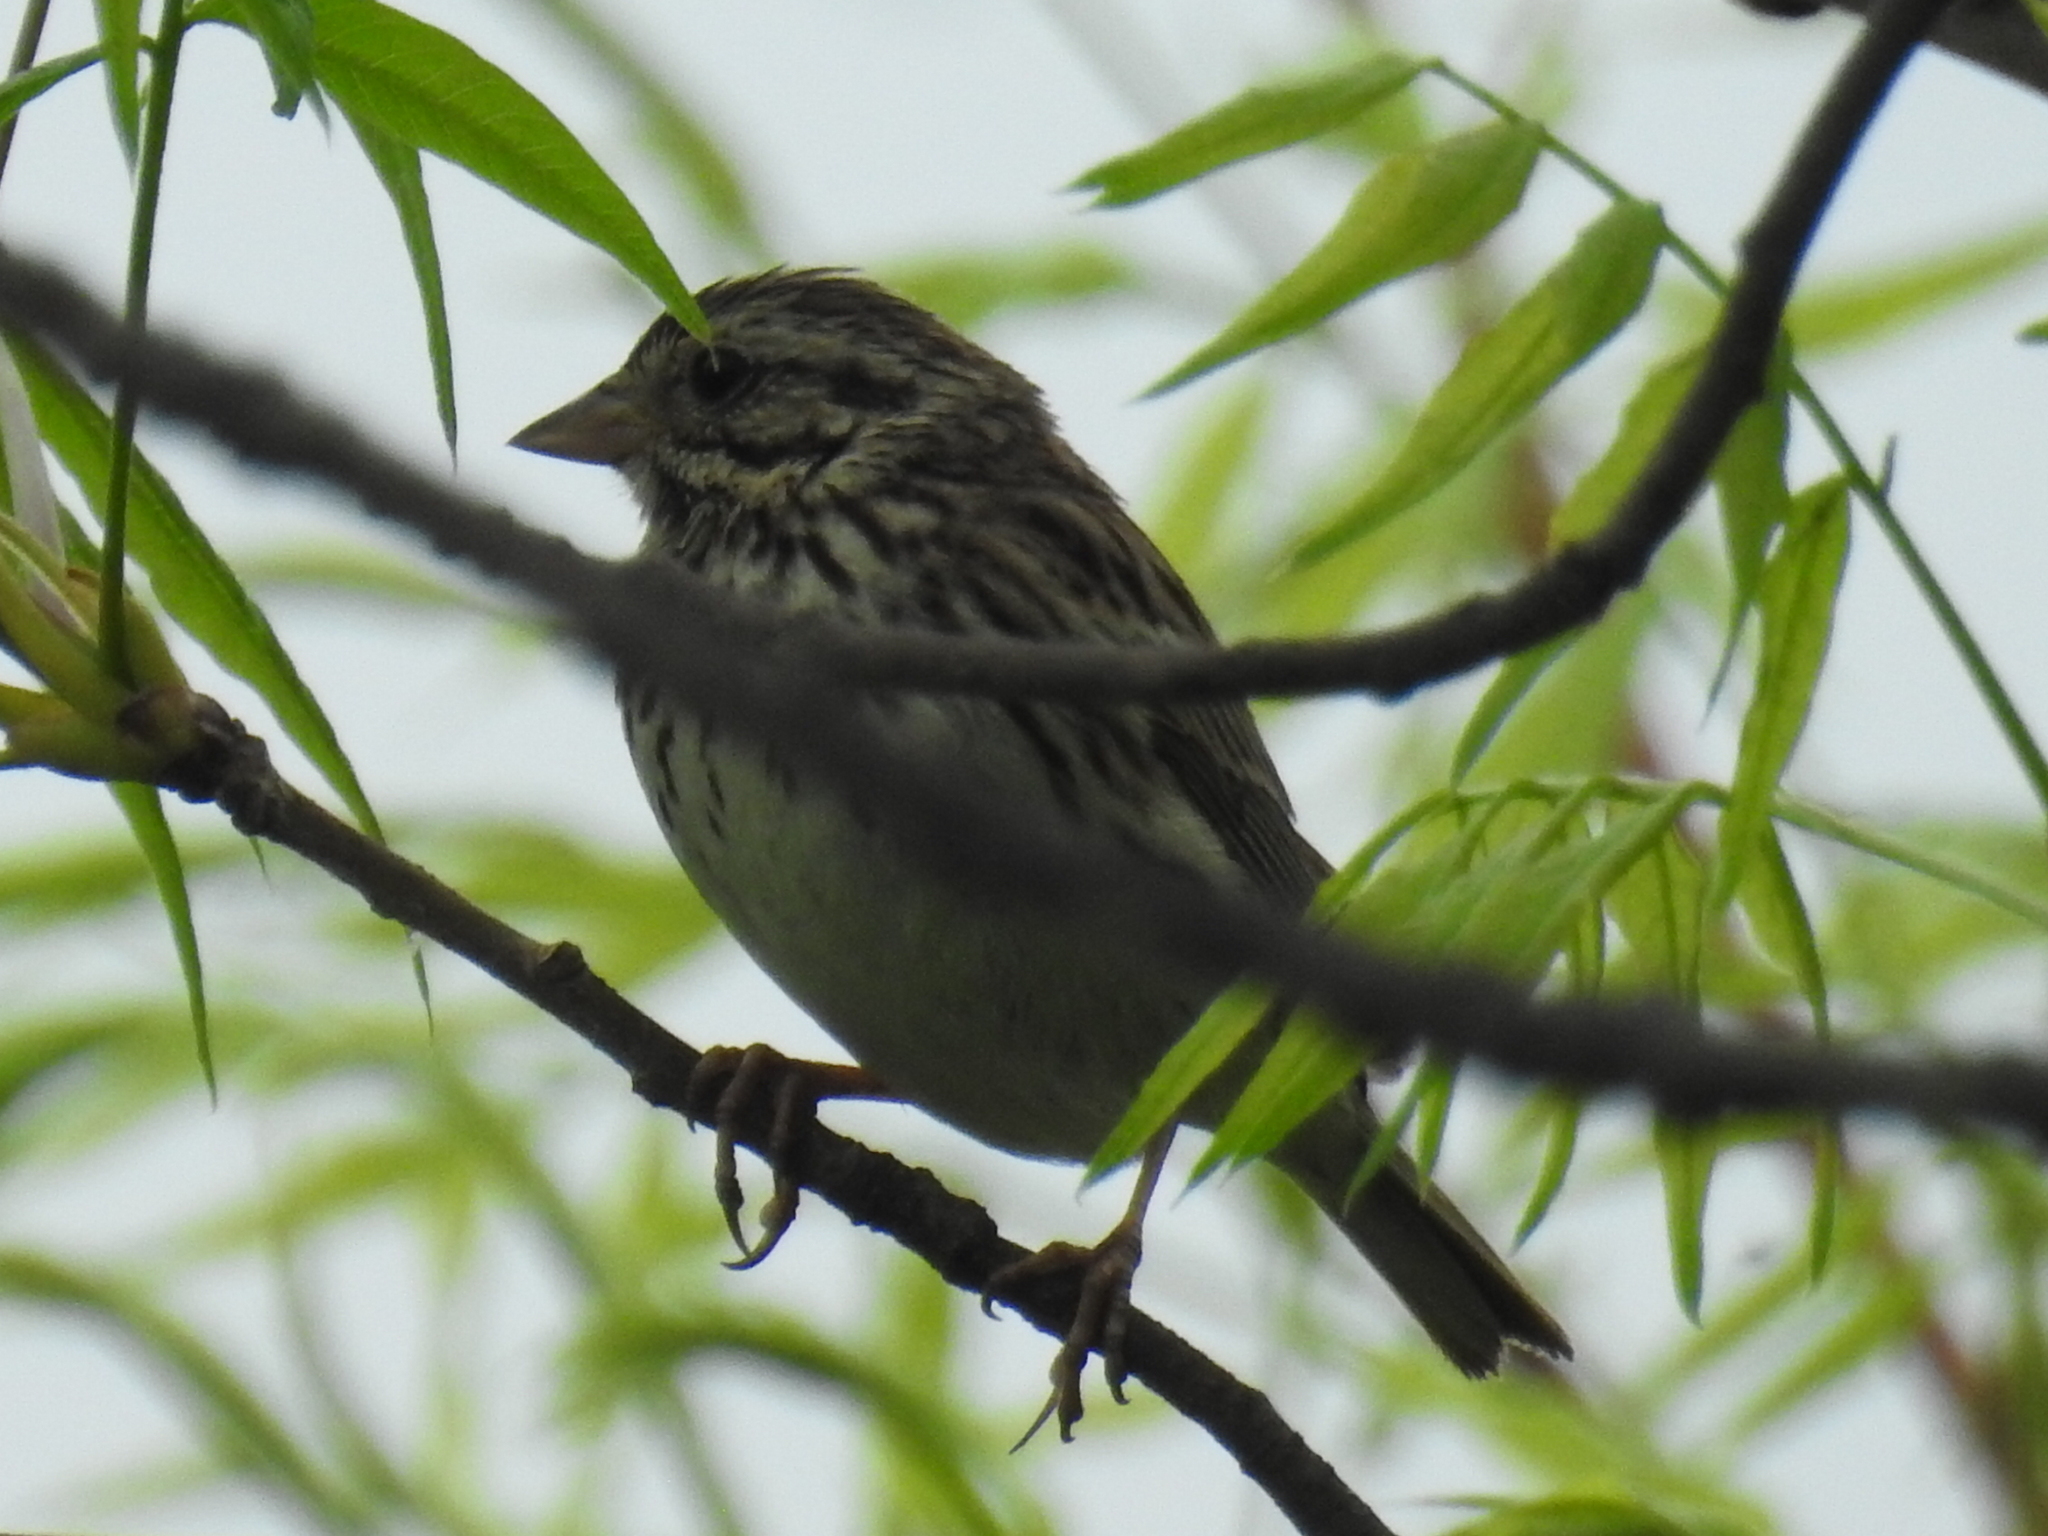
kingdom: Animalia
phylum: Chordata
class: Aves
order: Passeriformes
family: Passerellidae
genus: Melospiza
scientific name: Melospiza melodia
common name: Song sparrow
